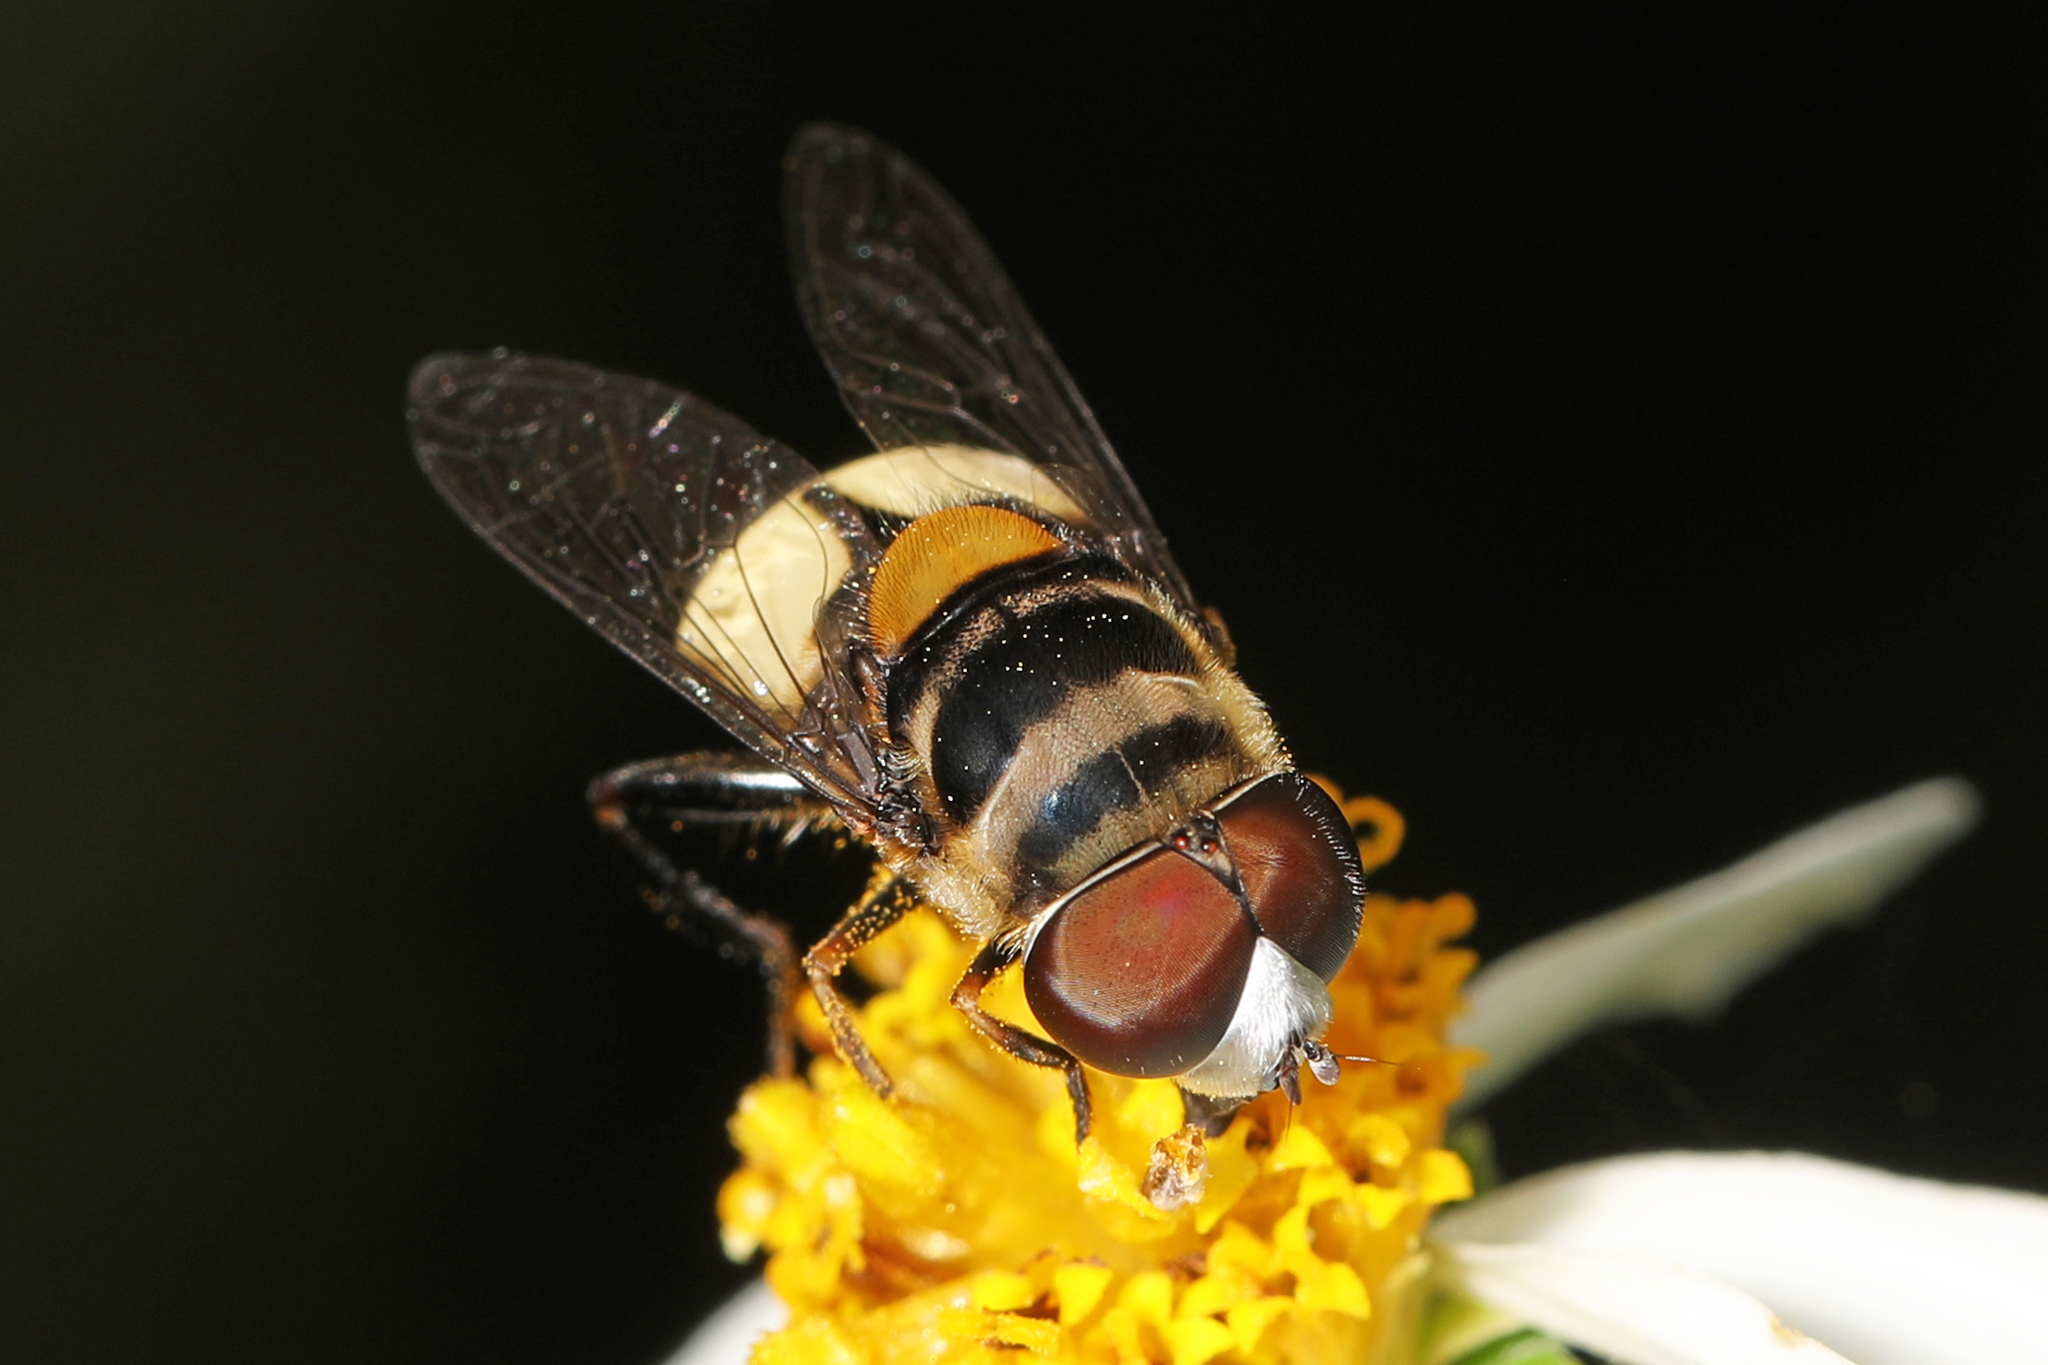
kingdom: Animalia
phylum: Arthropoda
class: Insecta
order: Diptera
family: Syrphidae
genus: Palpada
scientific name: Palpada albifrons
